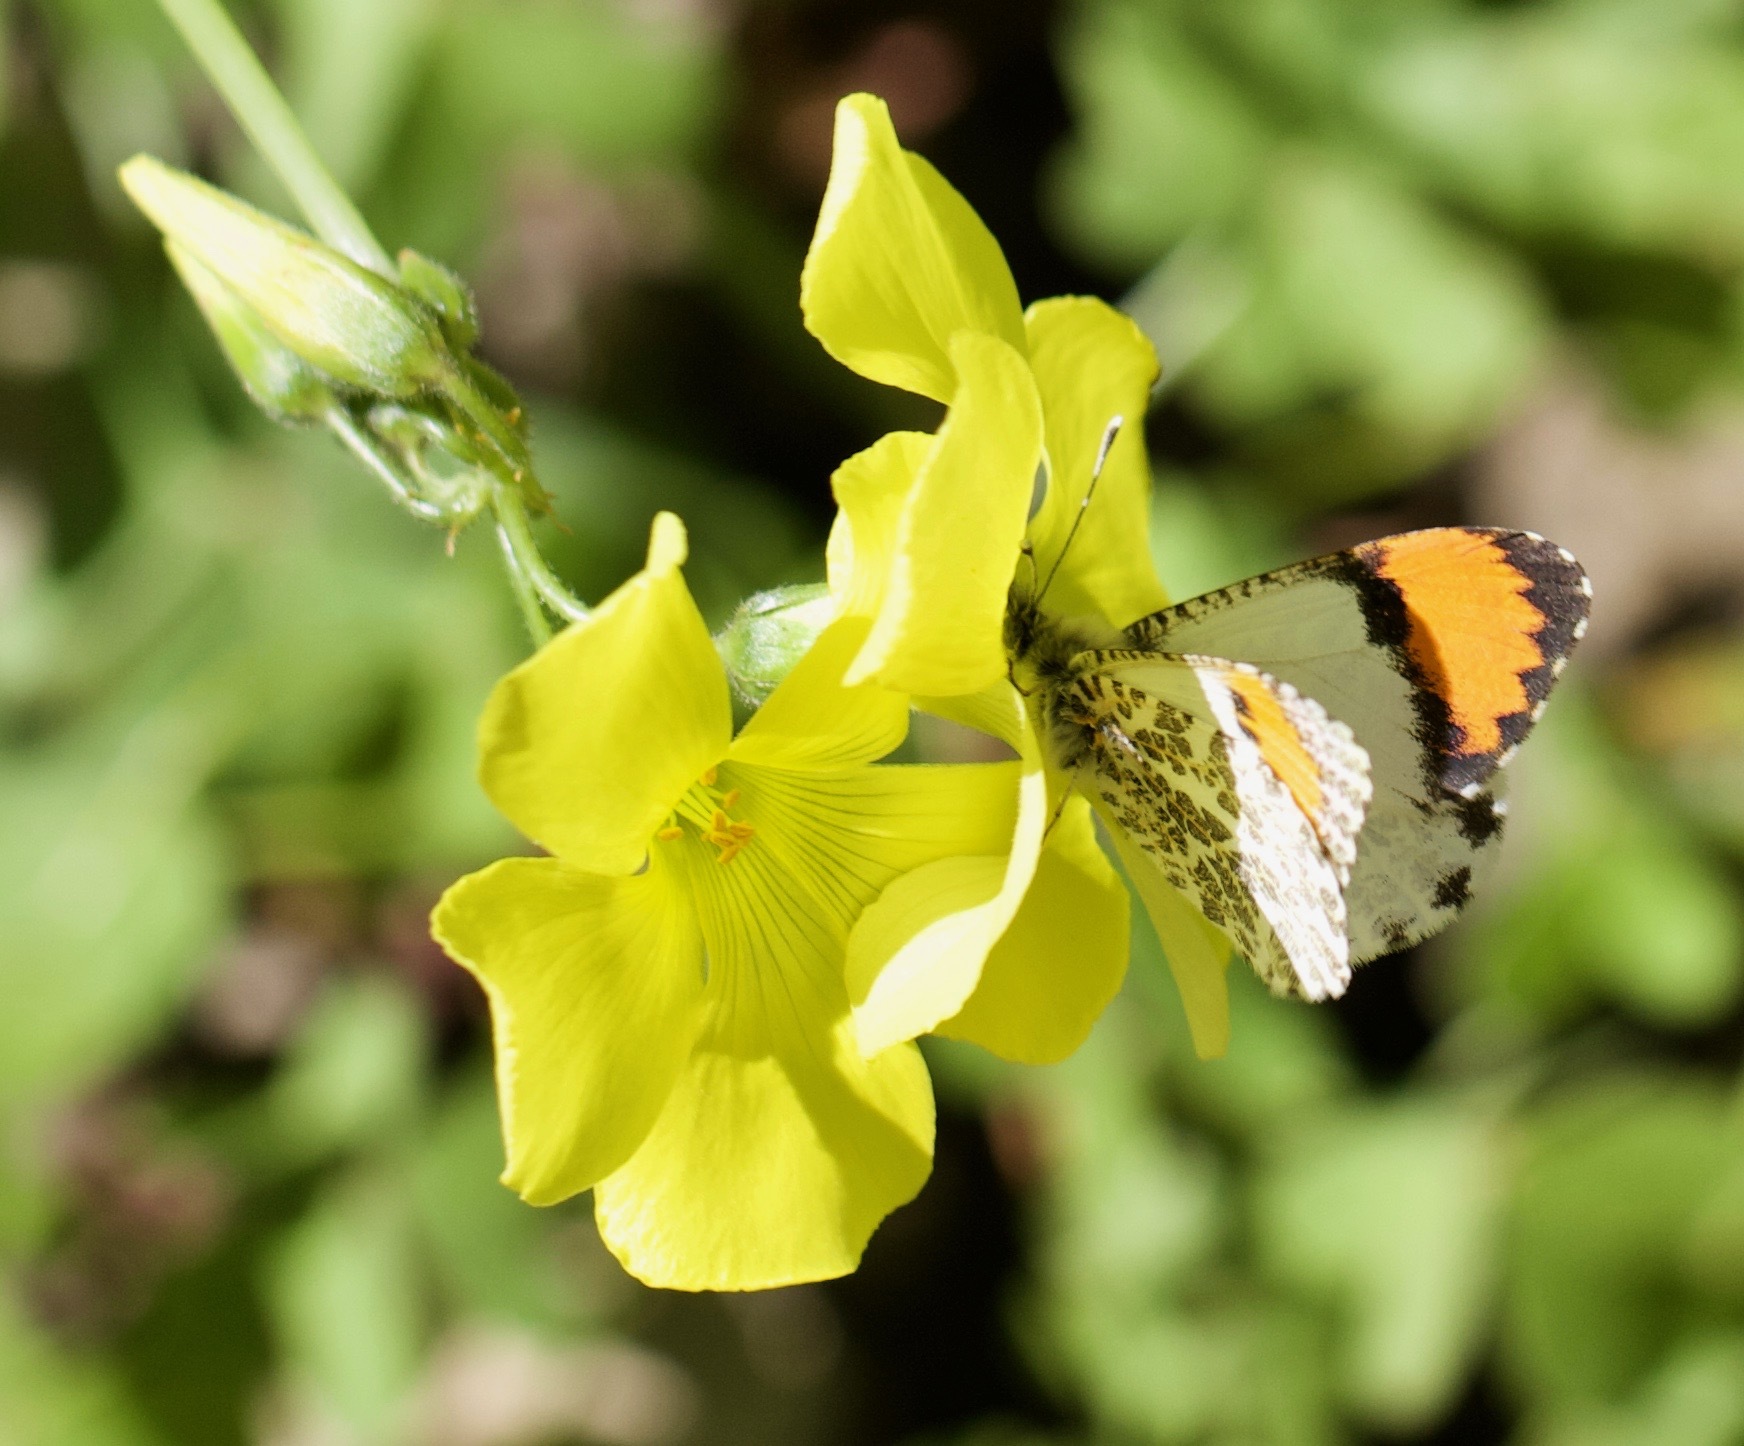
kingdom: Animalia
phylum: Arthropoda
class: Insecta
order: Lepidoptera
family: Pieridae
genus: Anthocharis
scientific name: Anthocharis sara
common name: Sara's orangetip
